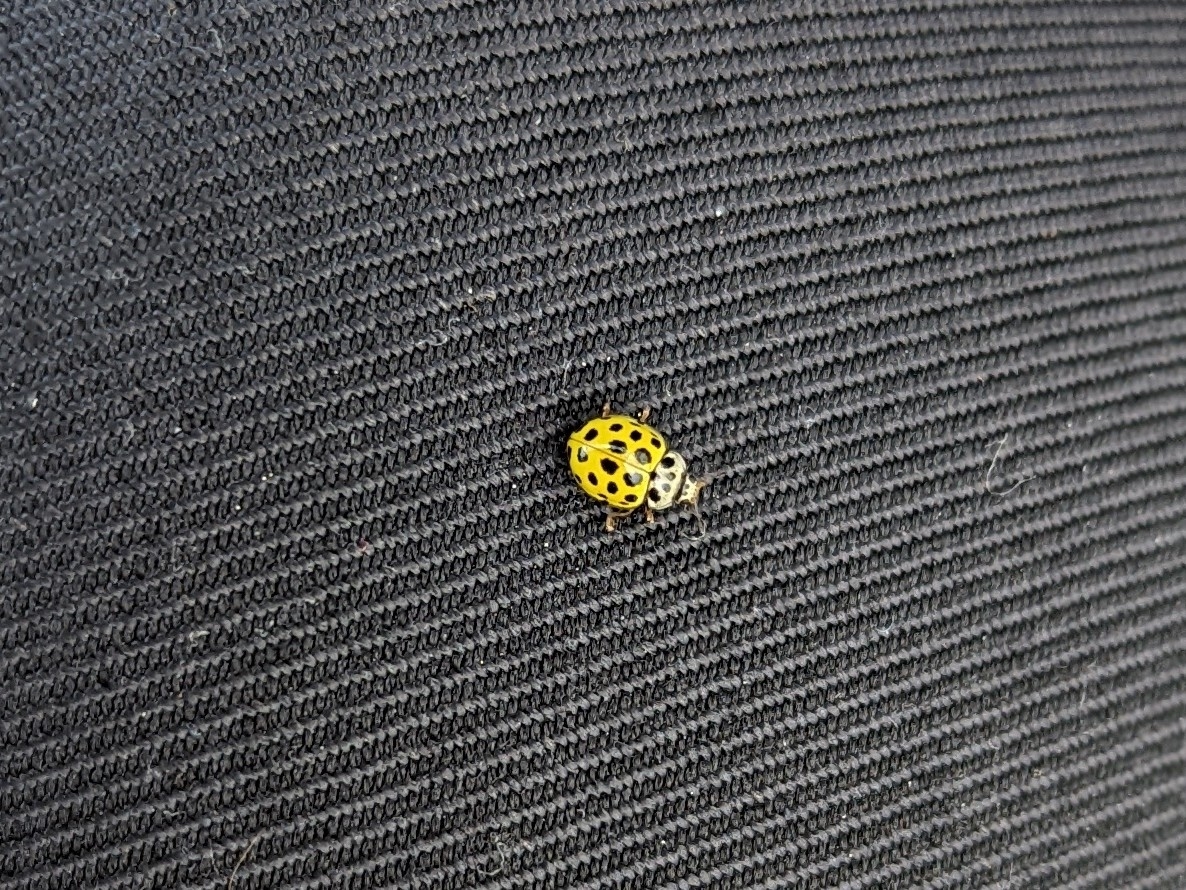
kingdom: Animalia
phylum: Arthropoda
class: Insecta
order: Coleoptera
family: Coccinellidae
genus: Psyllobora
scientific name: Psyllobora vigintiduopunctata
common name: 22-spot ladybird
